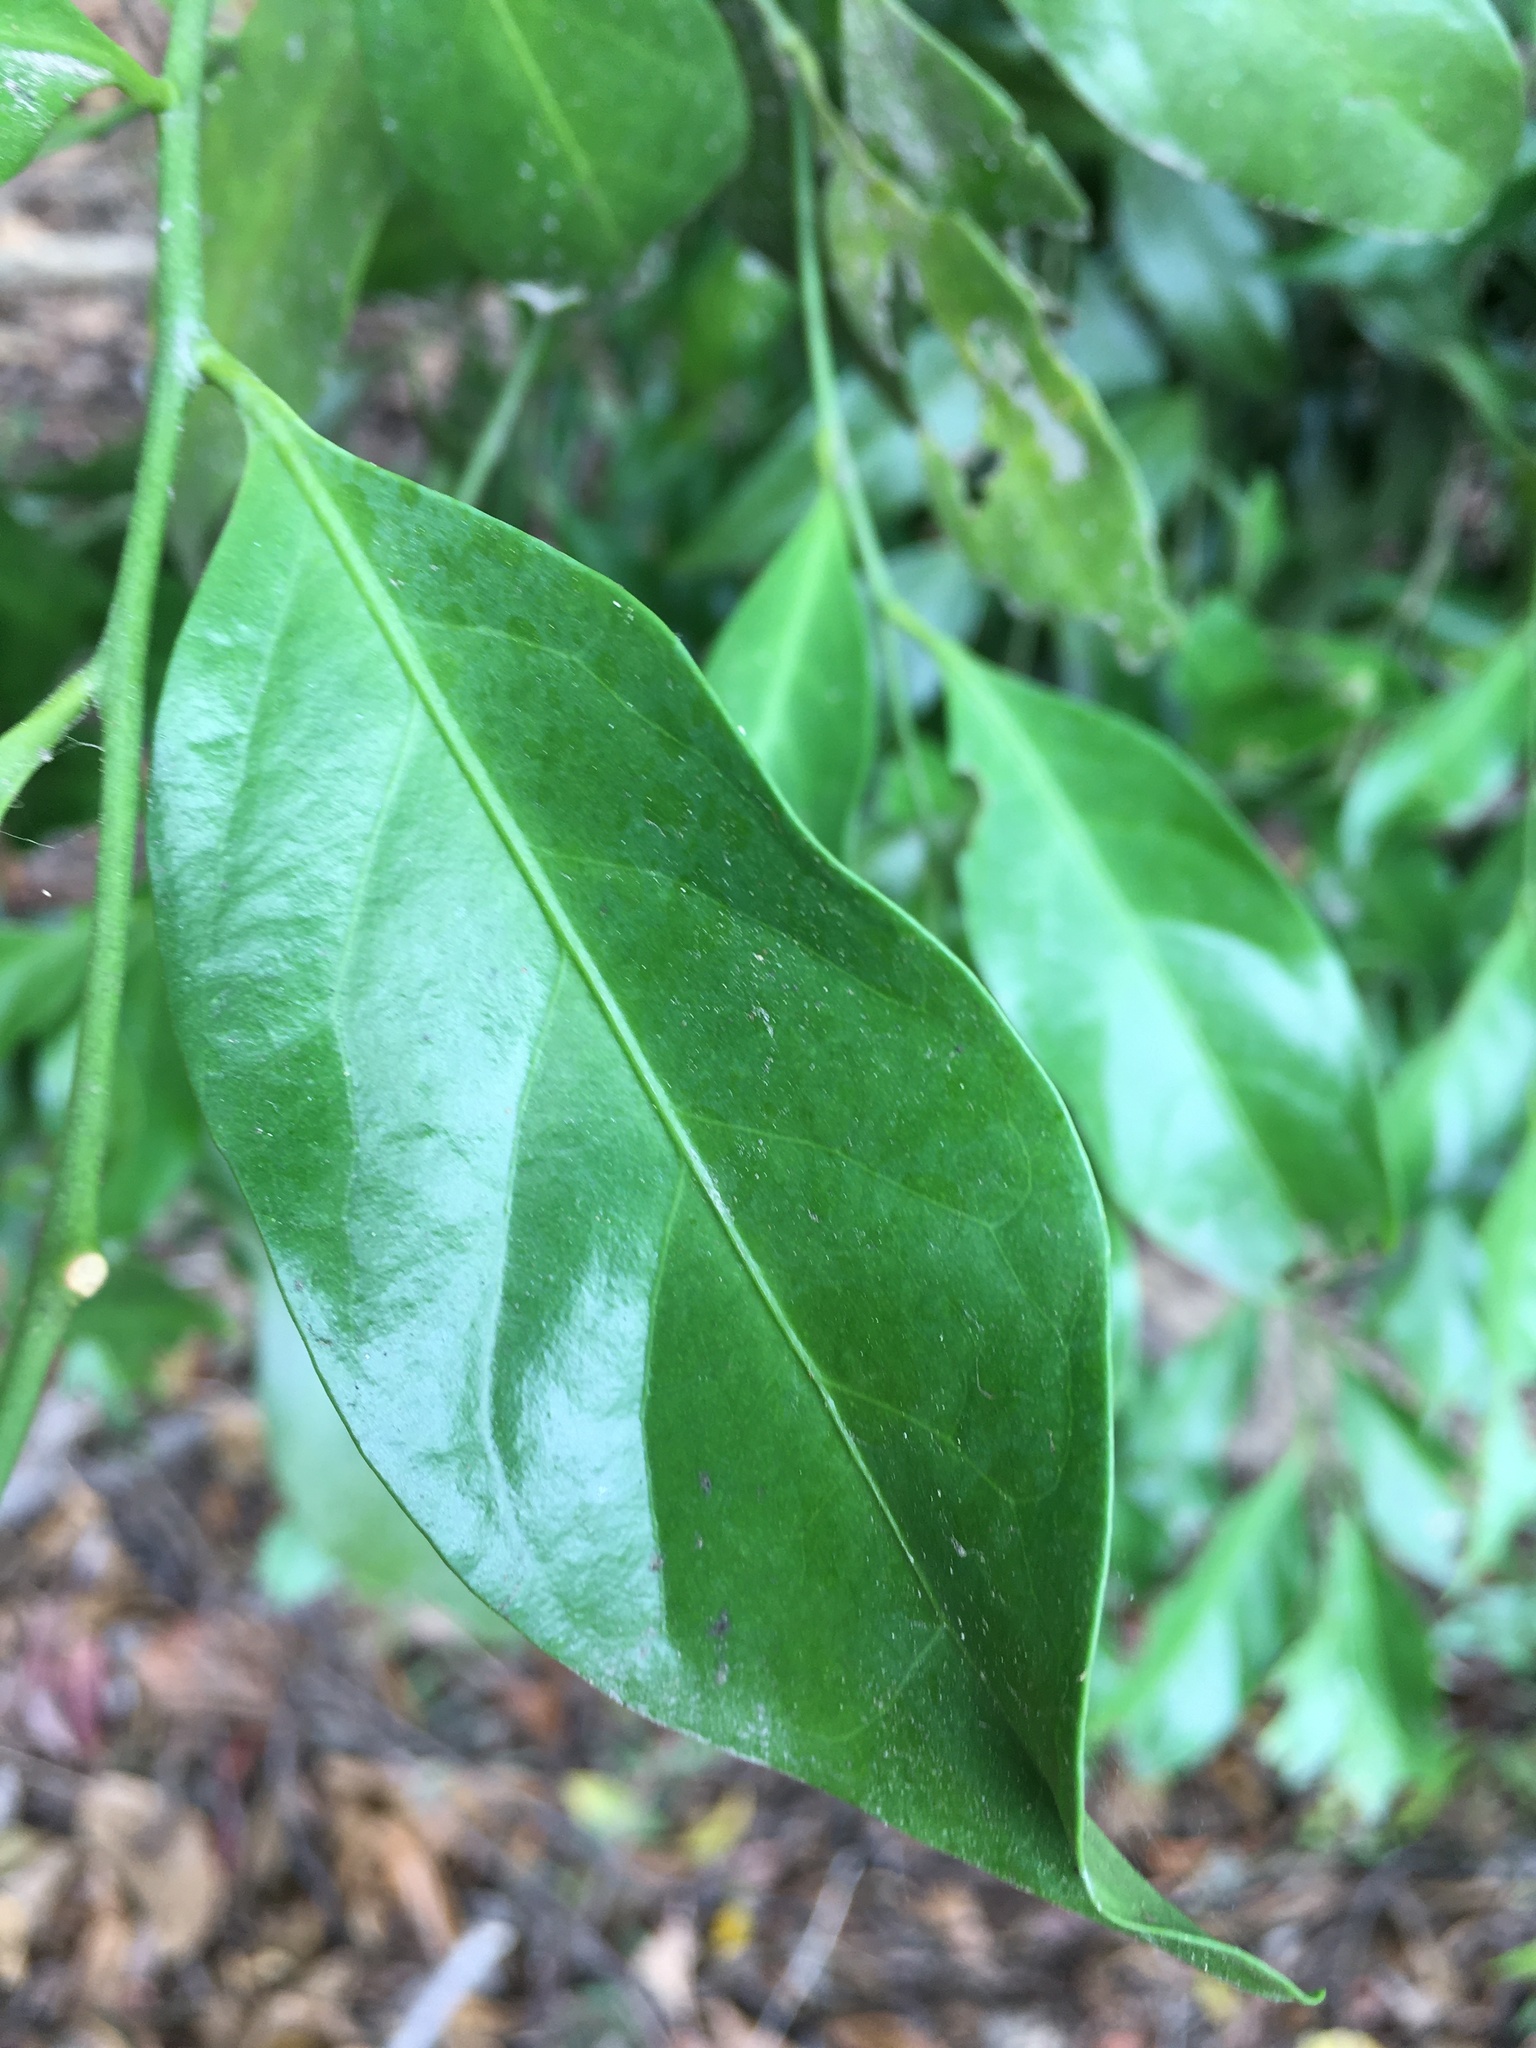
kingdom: Plantae
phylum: Tracheophyta
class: Magnoliopsida
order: Santalales
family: Opiliaceae
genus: Champereia
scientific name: Champereia manillana
